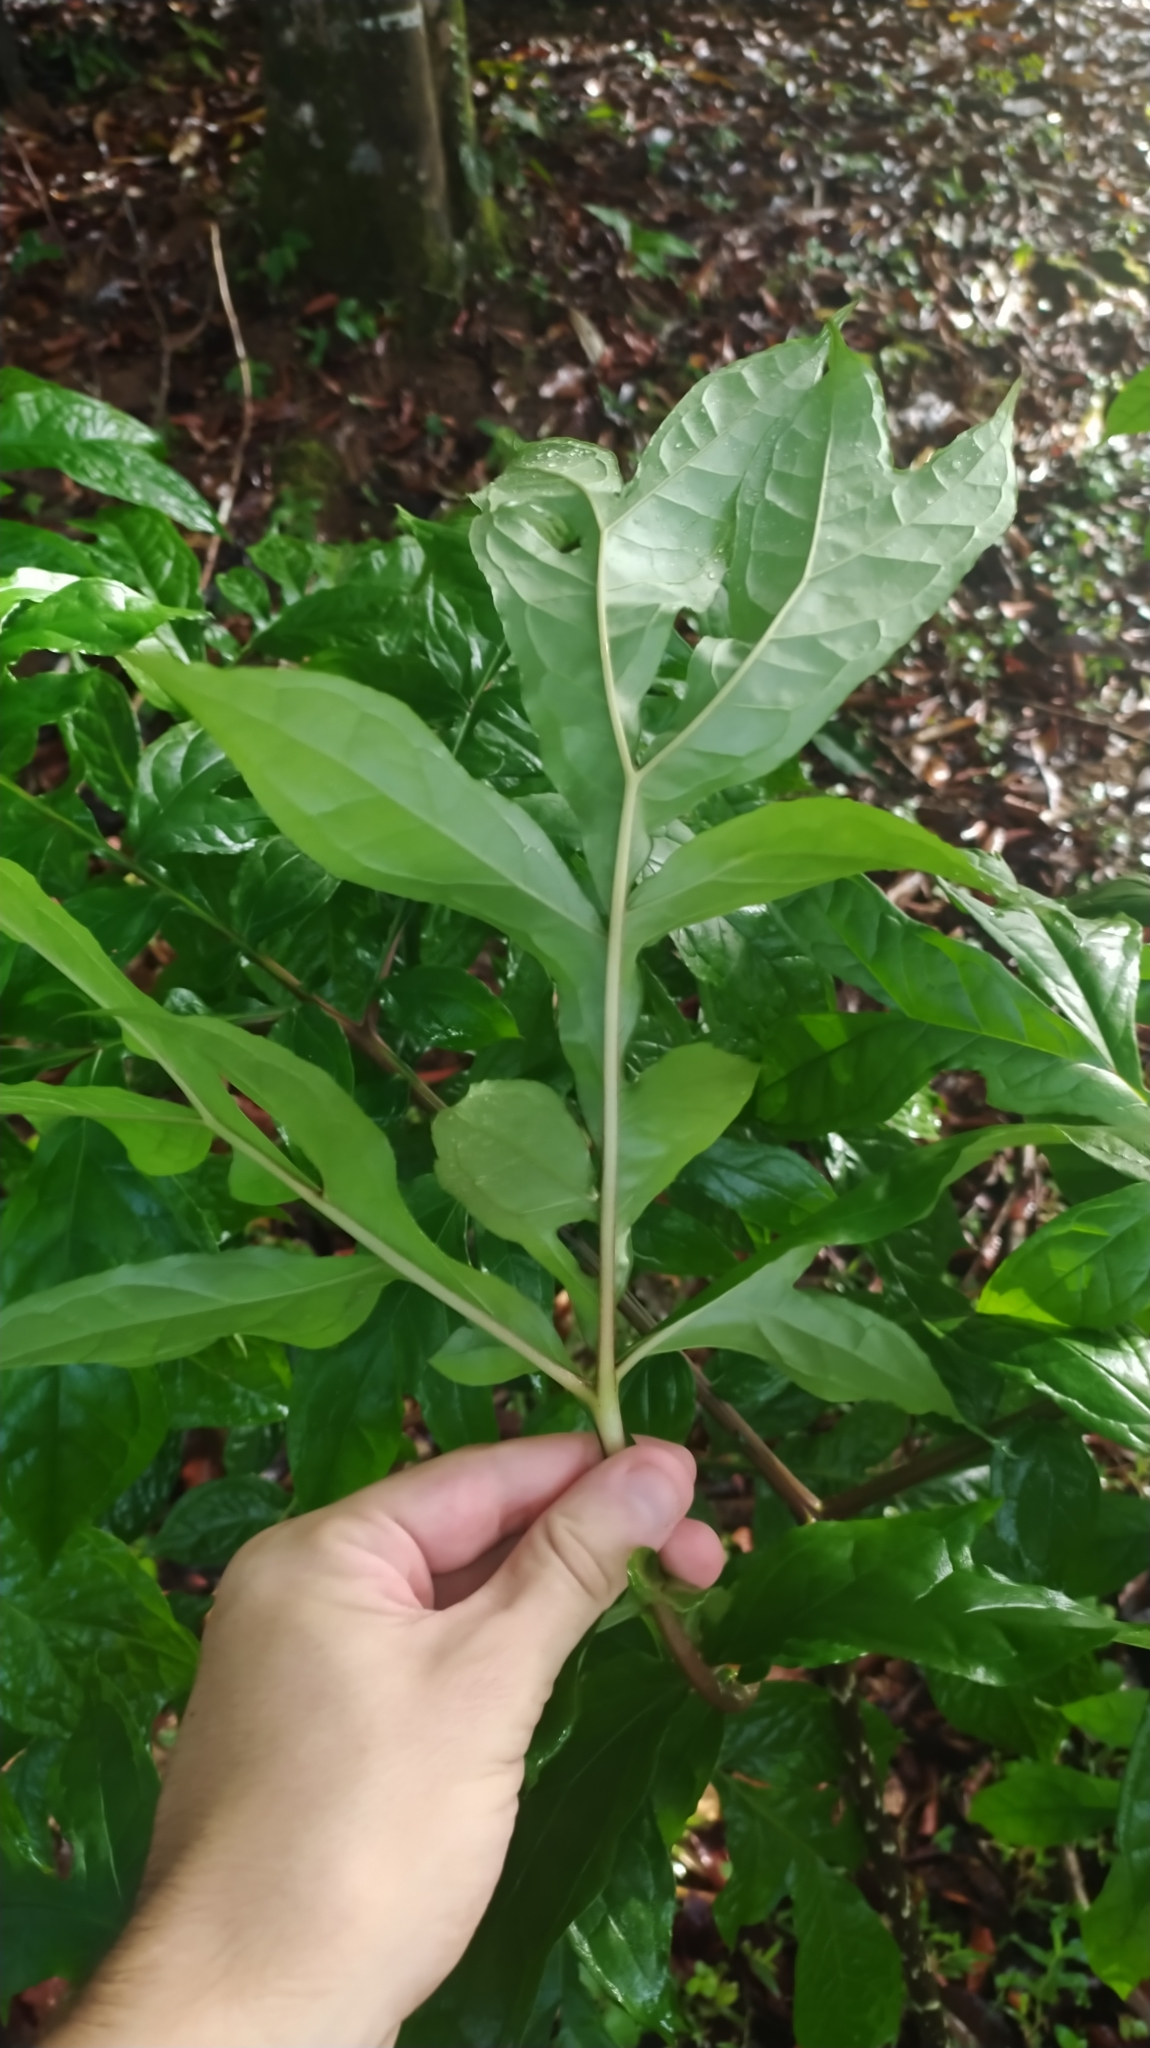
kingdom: Plantae
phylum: Tracheophyta
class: Liliopsida
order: Alismatales
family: Araceae
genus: Dracontium
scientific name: Dracontium
